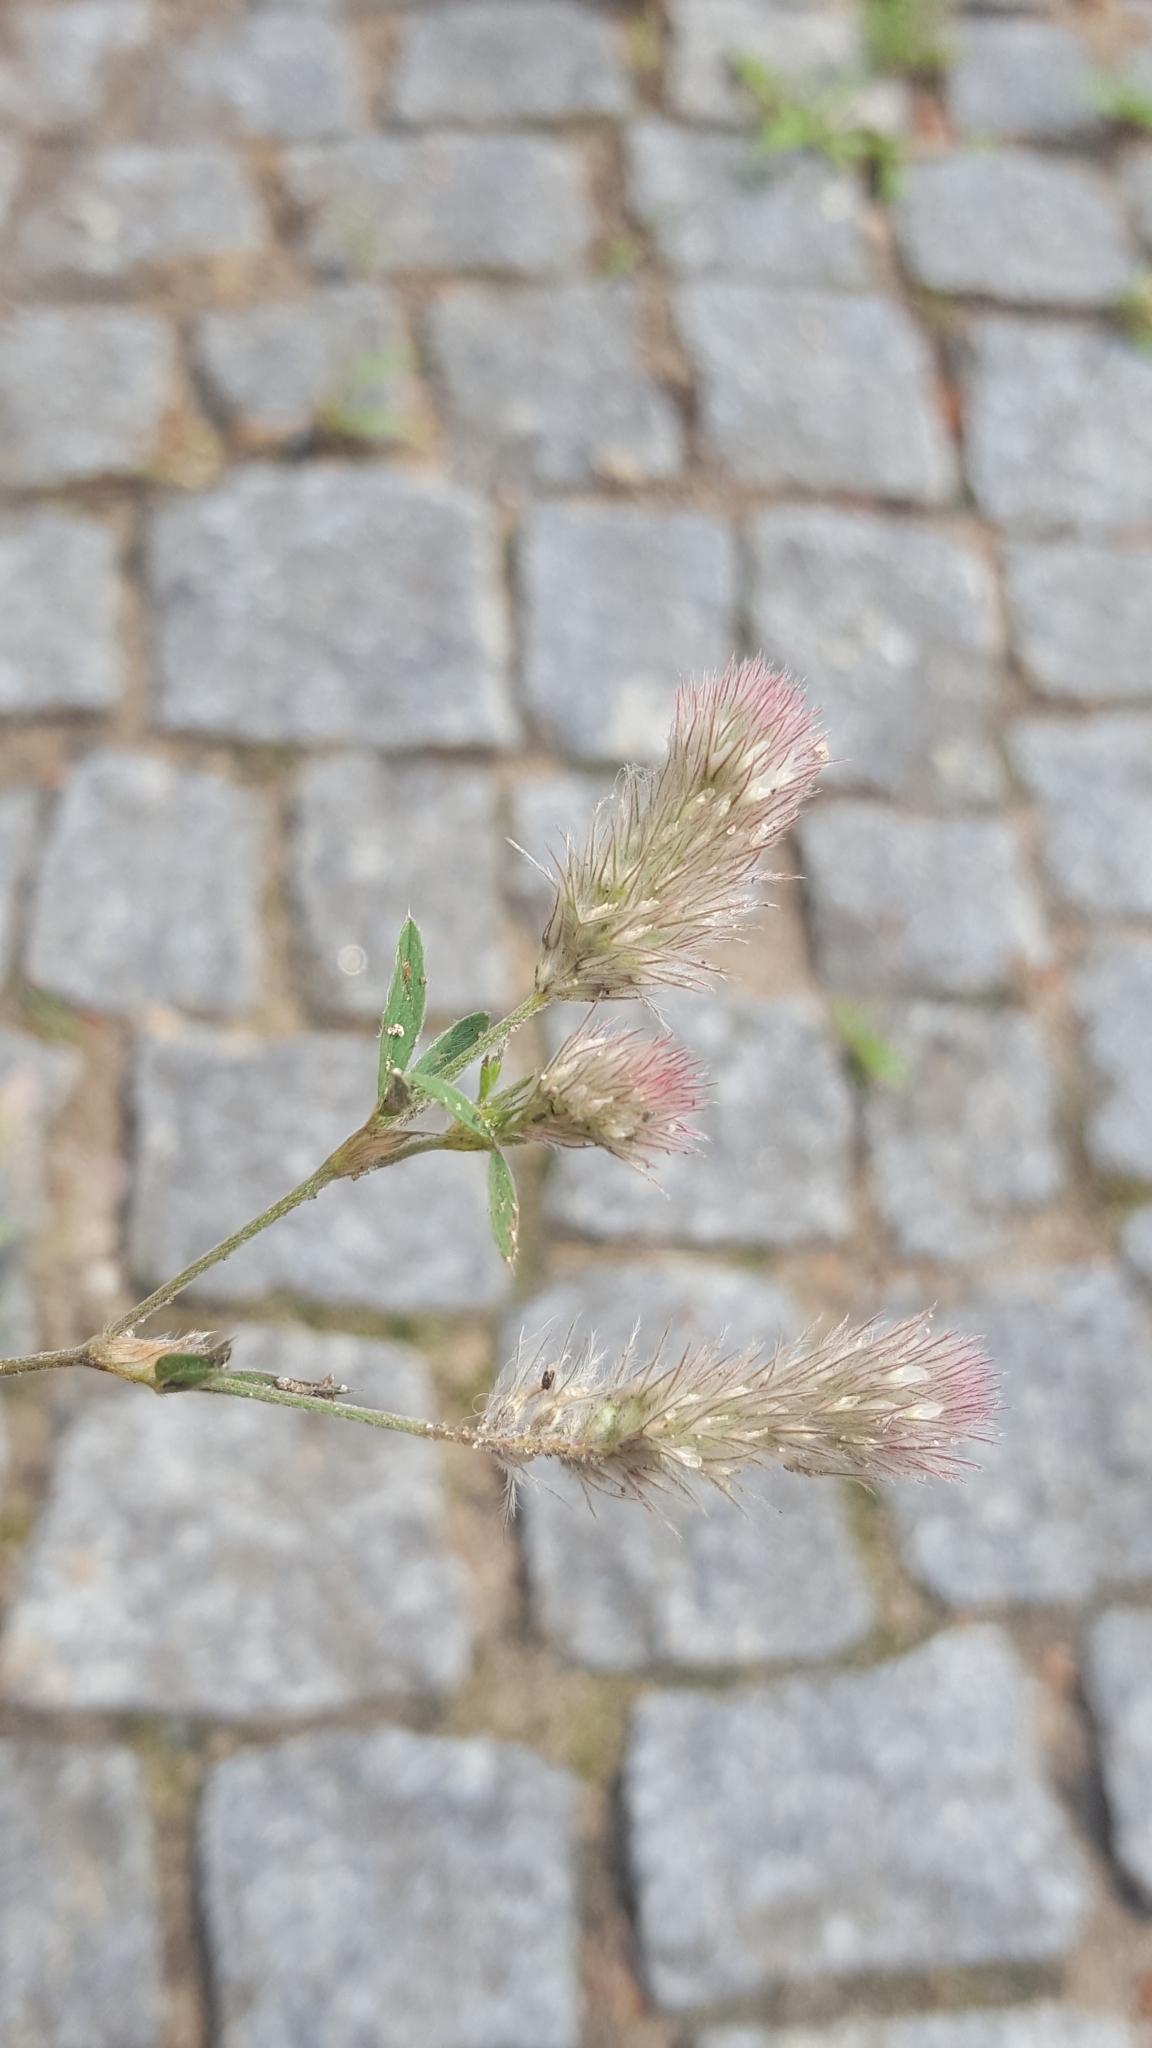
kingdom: Plantae
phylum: Tracheophyta
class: Magnoliopsida
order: Fabales
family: Fabaceae
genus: Trifolium
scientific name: Trifolium arvense
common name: Hare's-foot clover
